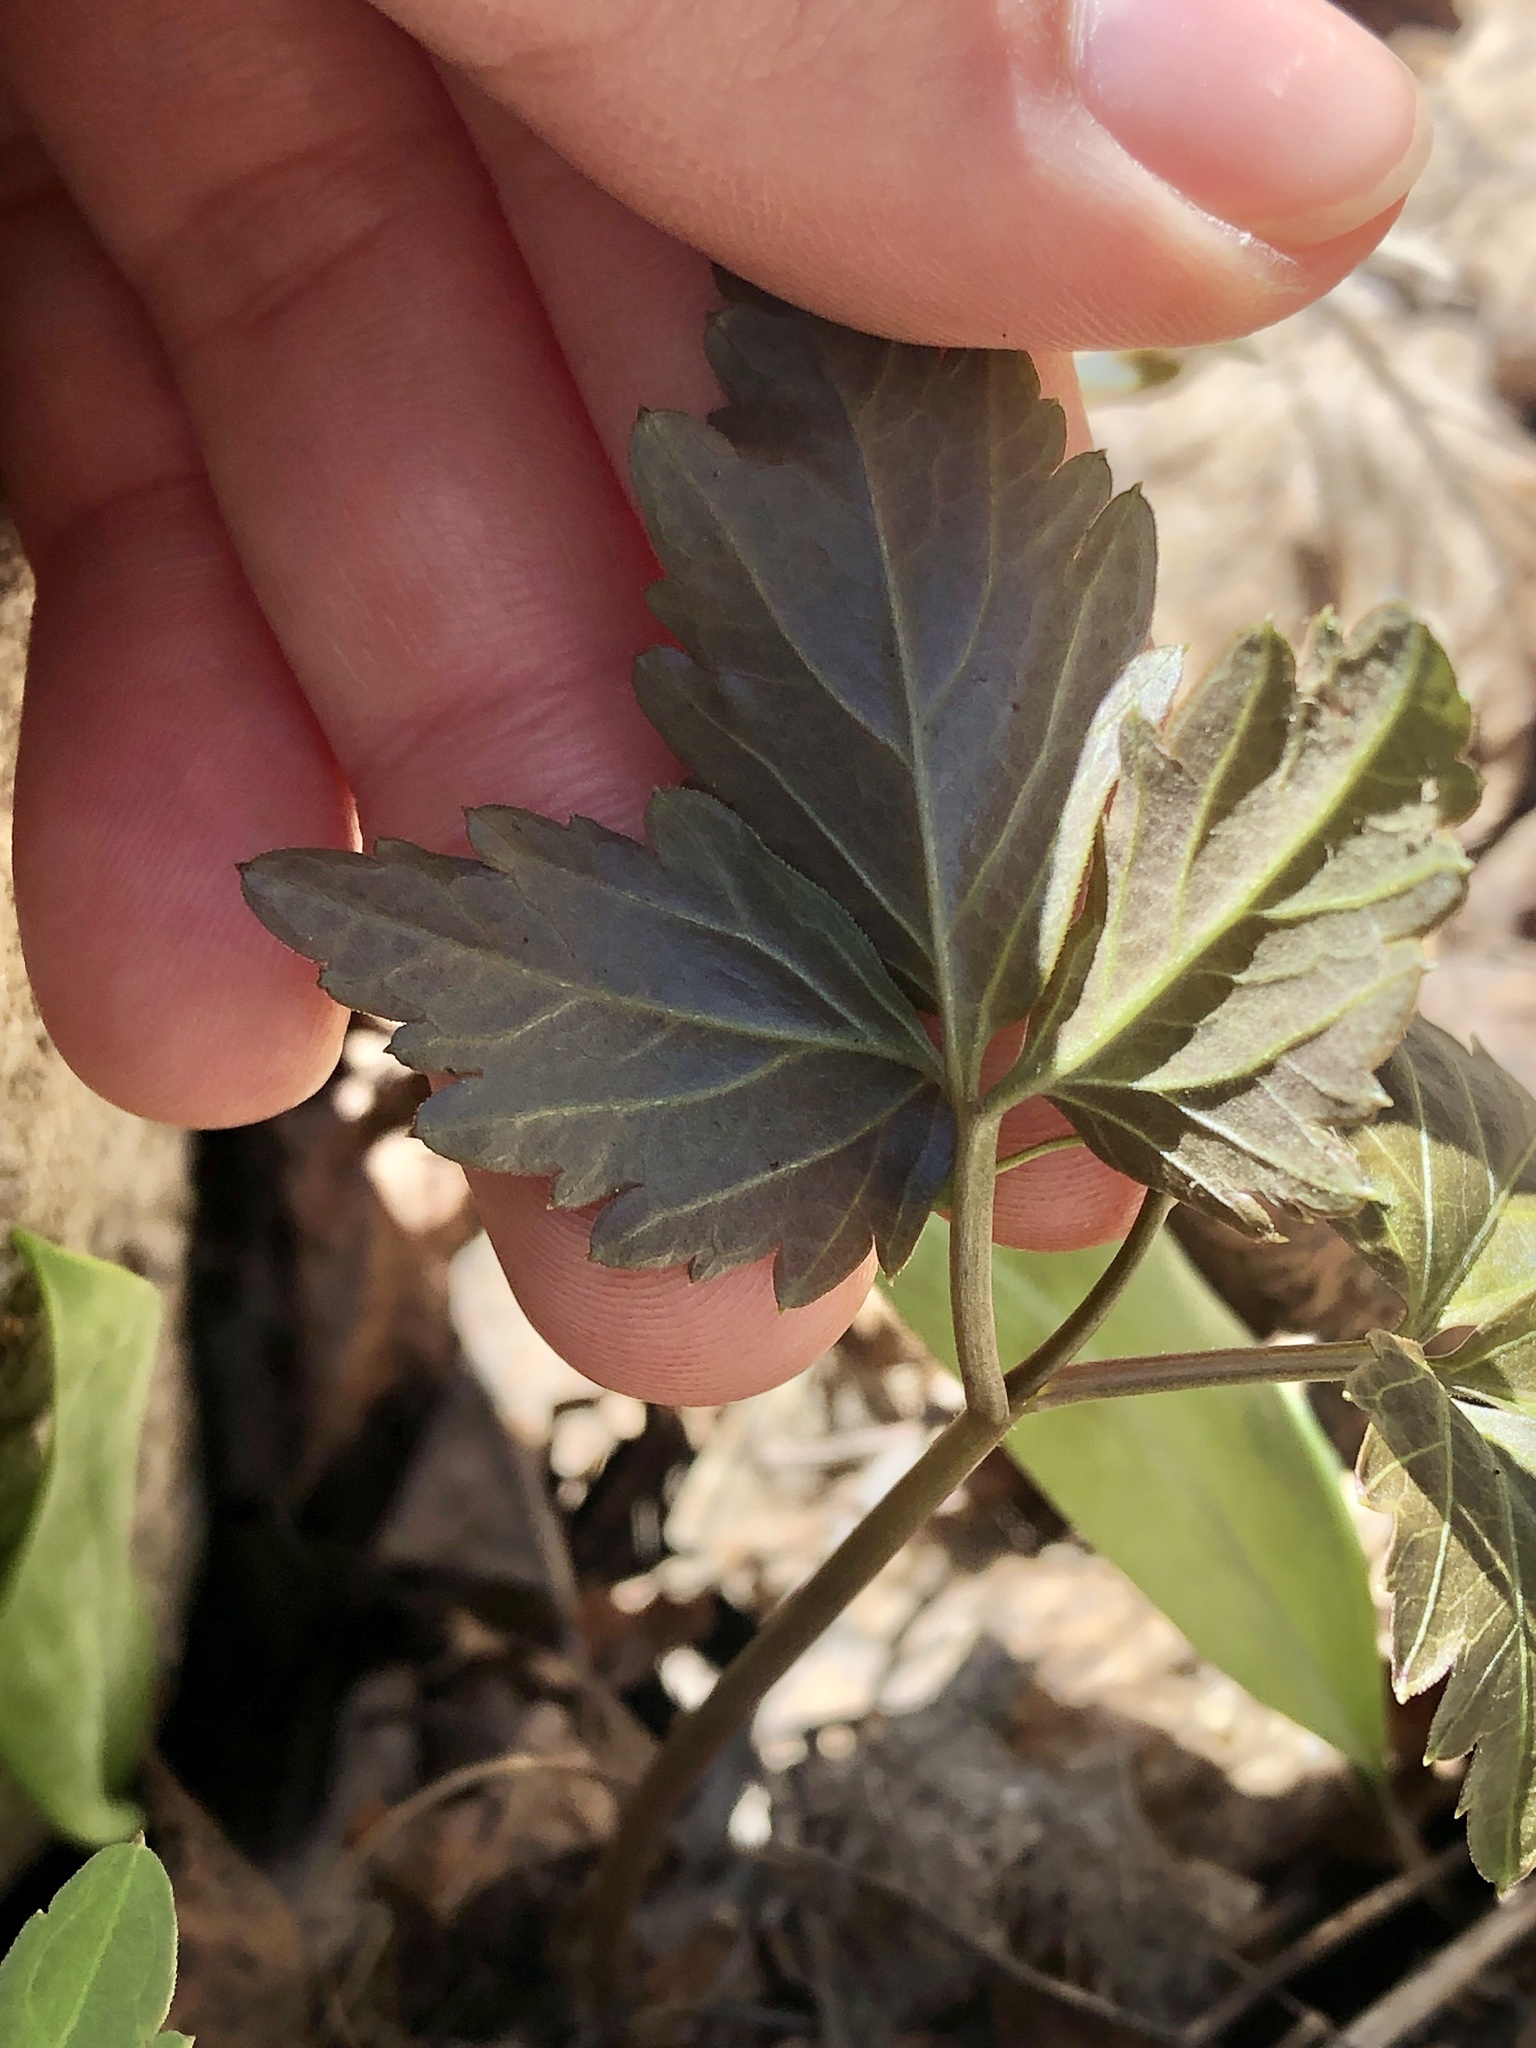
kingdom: Plantae
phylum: Tracheophyta
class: Magnoliopsida
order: Brassicales
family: Brassicaceae
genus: Cardamine
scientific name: Cardamine diphylla
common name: Broad-leaved toothwort
